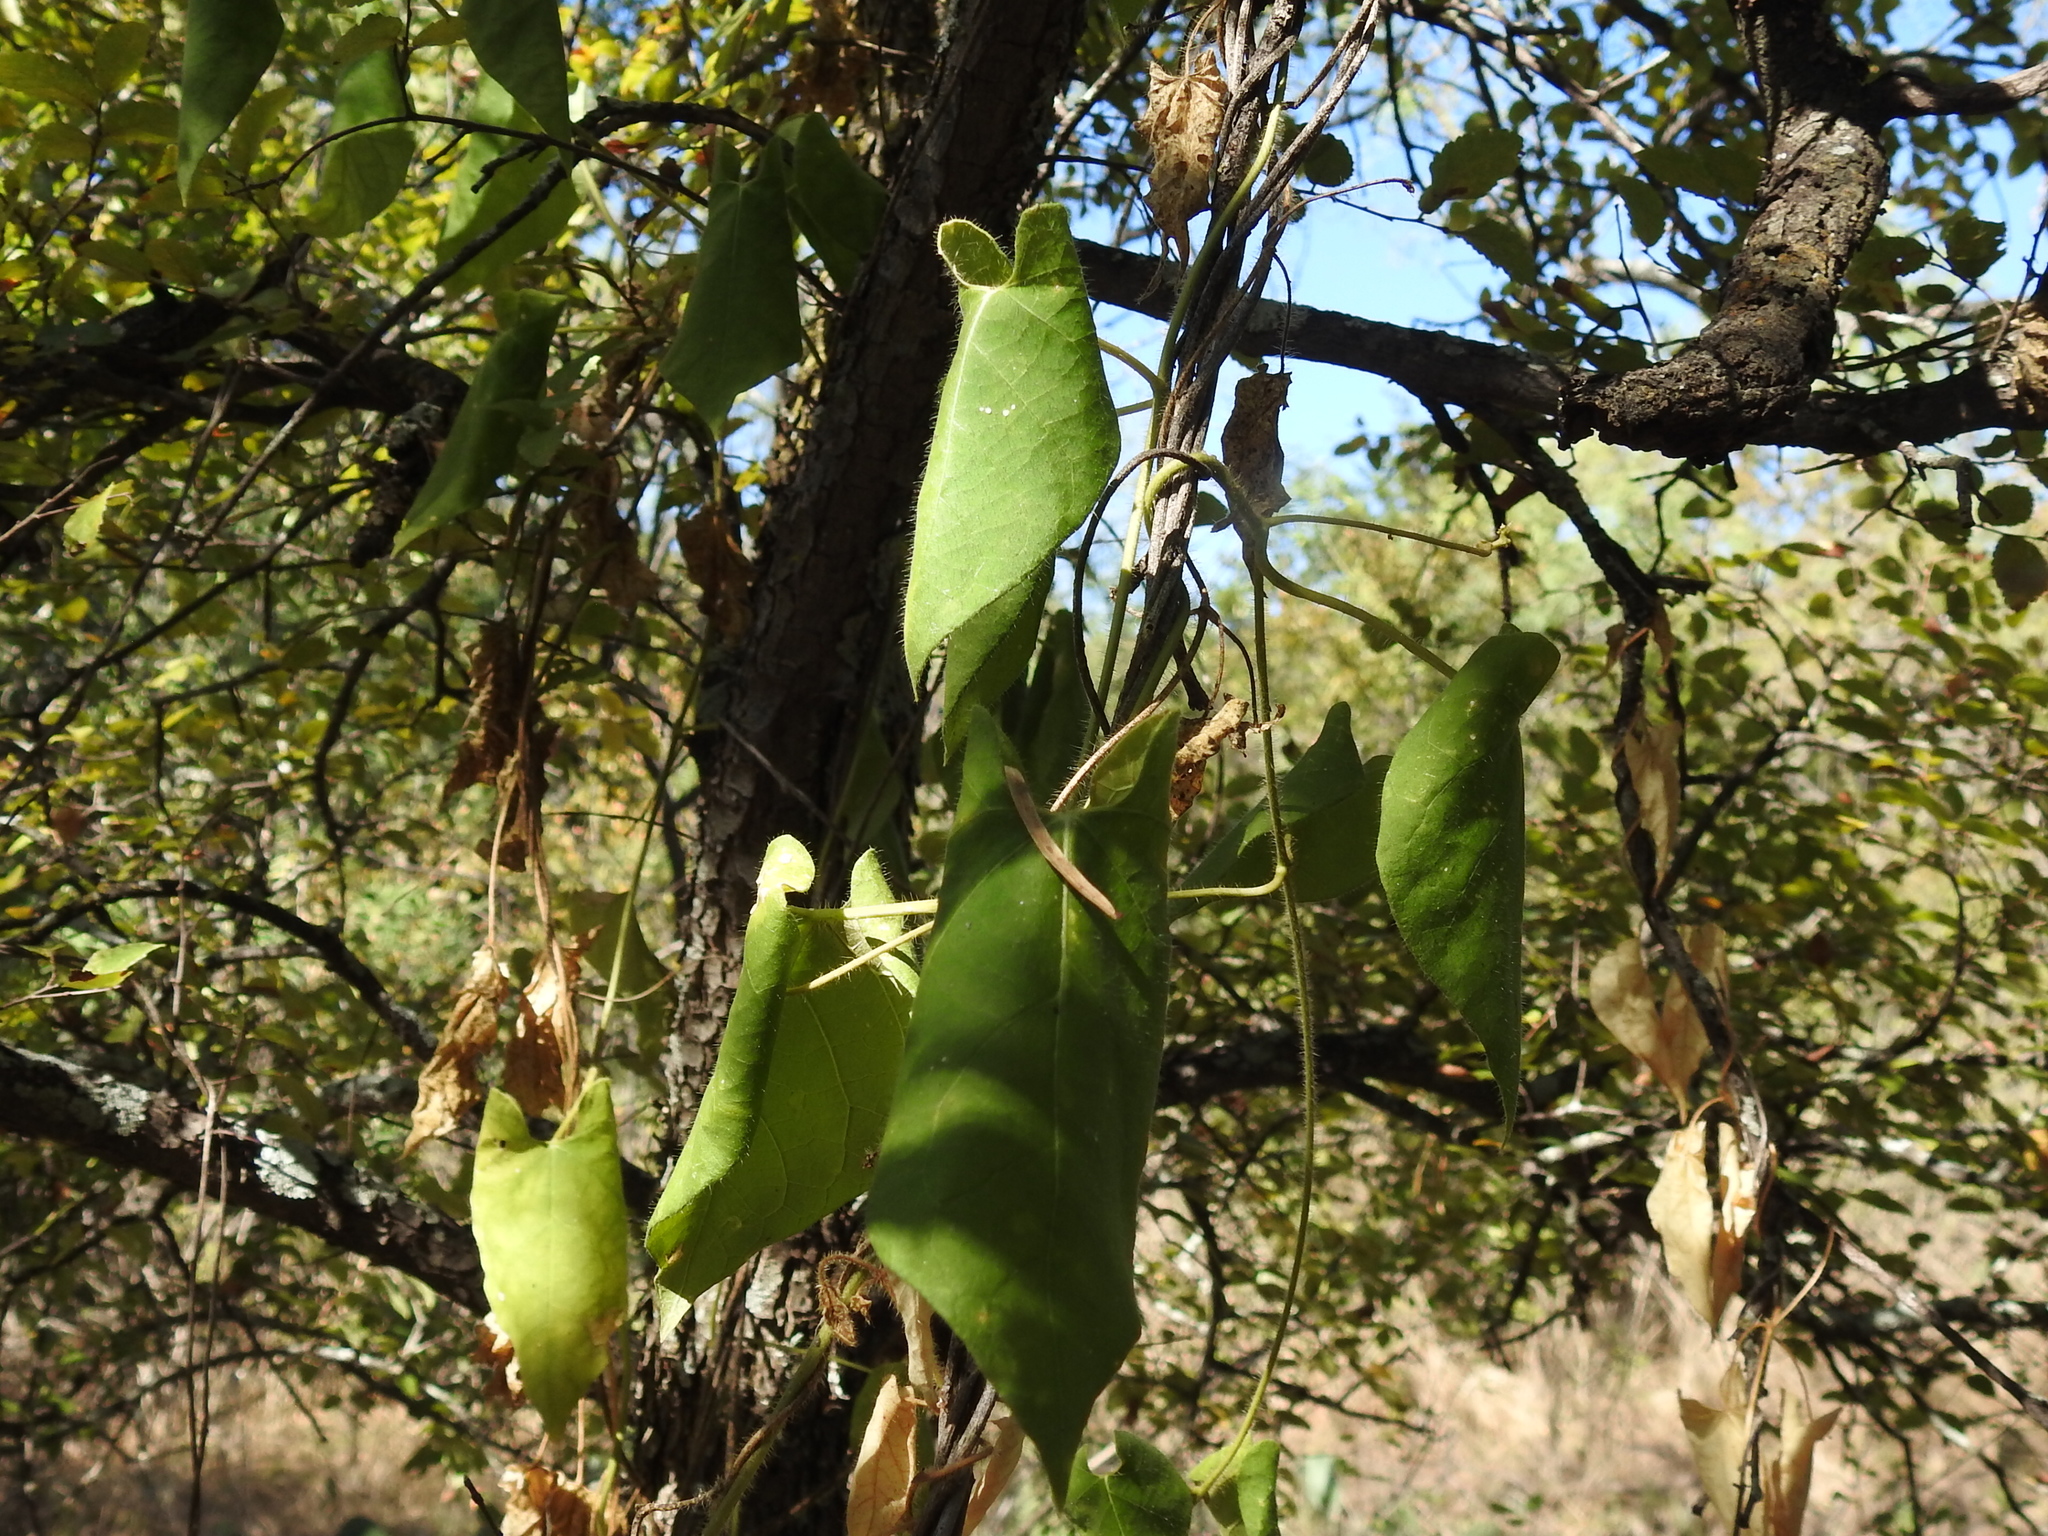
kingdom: Plantae
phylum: Tracheophyta
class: Magnoliopsida
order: Gentianales
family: Apocynaceae
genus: Dictyanthus
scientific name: Dictyanthus reticulatus
